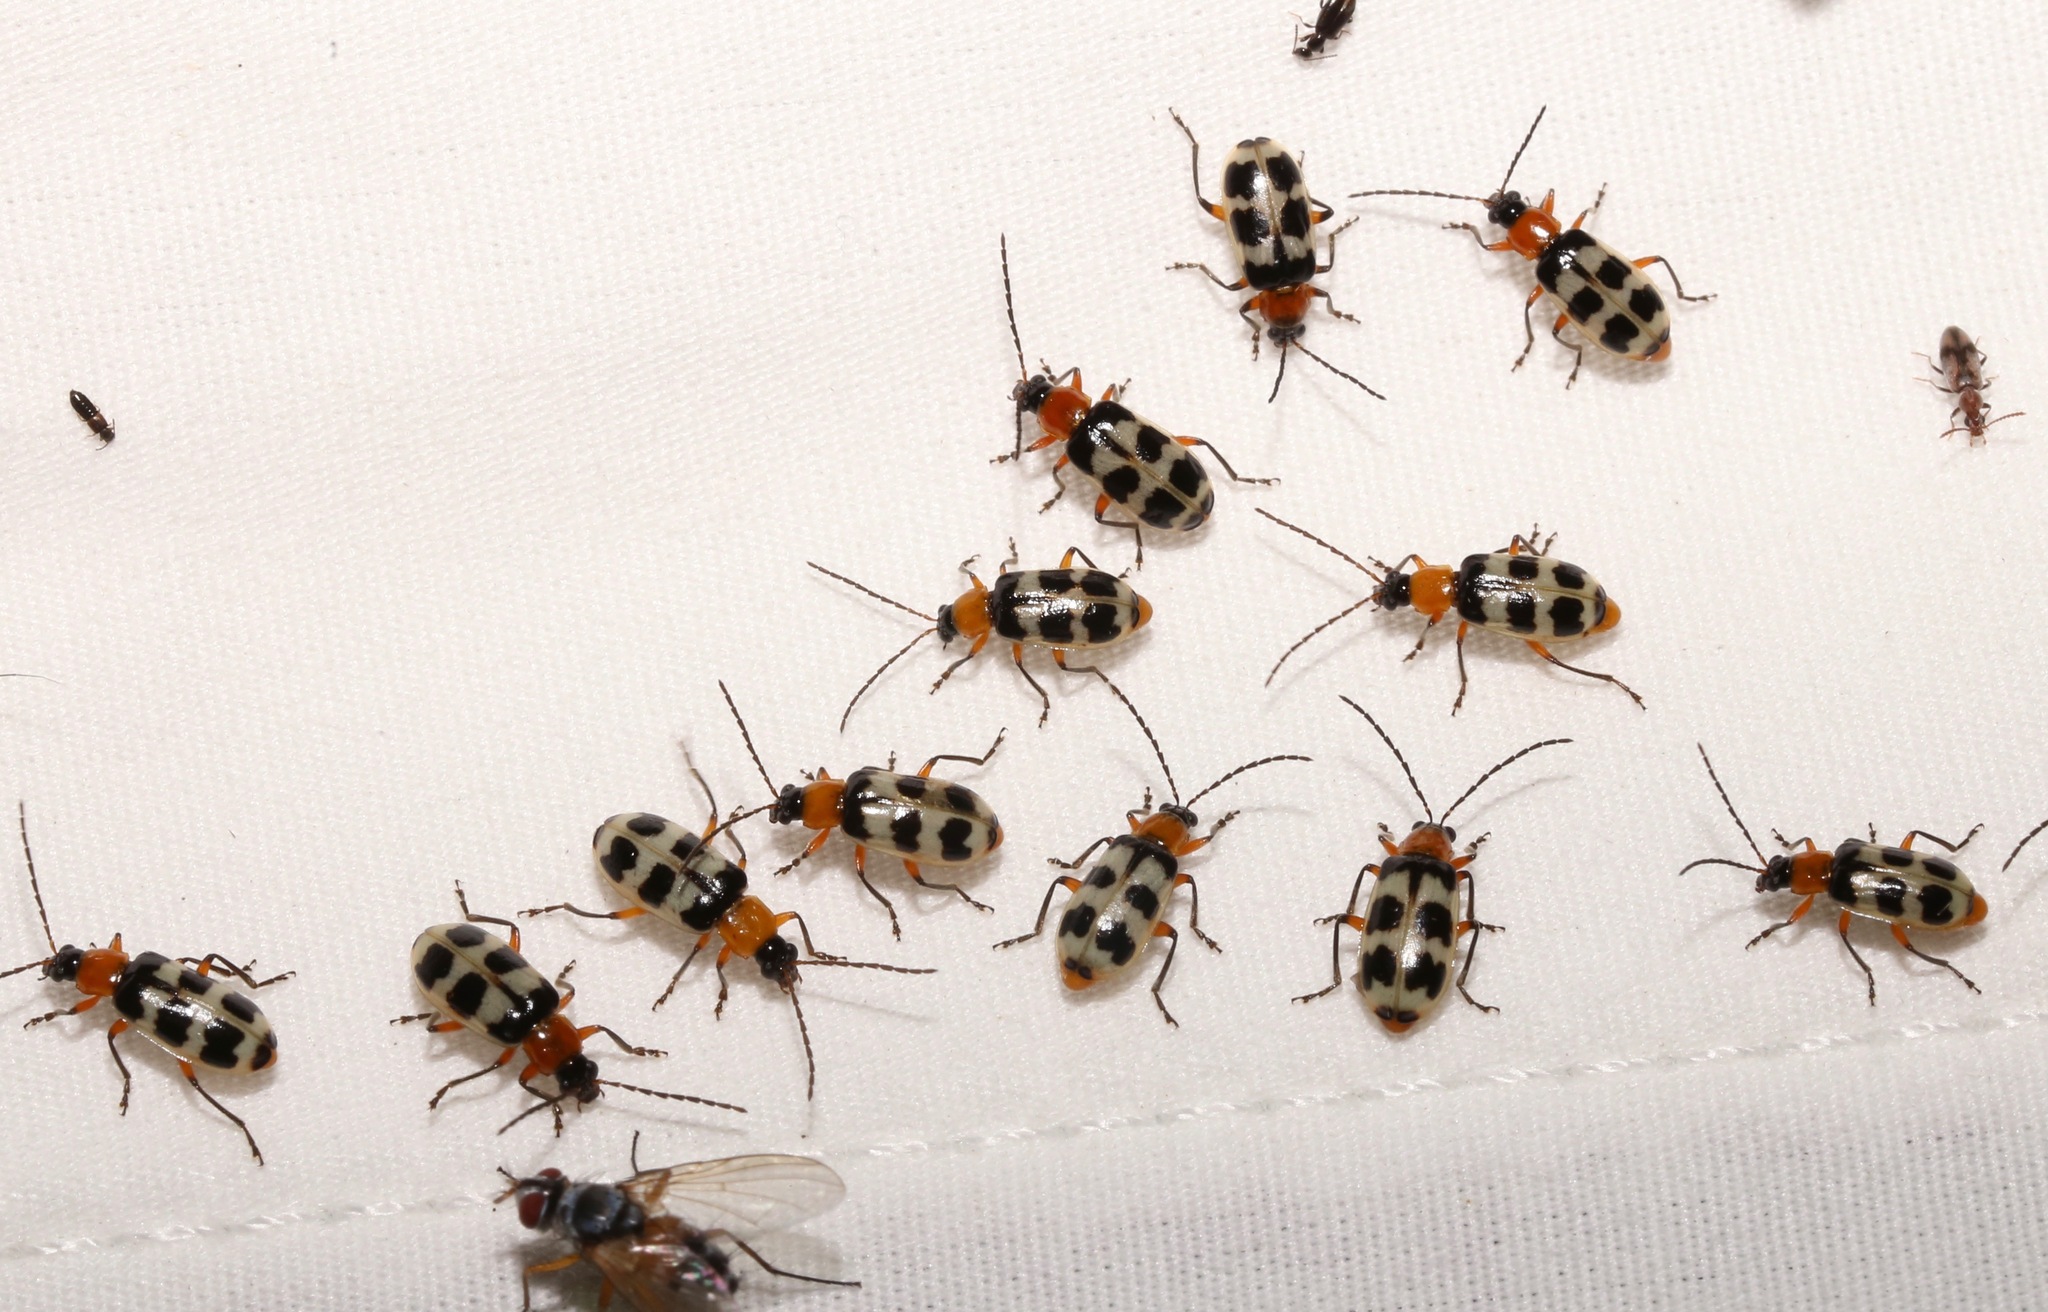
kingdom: Animalia
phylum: Arthropoda
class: Insecta
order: Coleoptera
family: Chrysomelidae
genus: Paranapiacaba
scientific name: Paranapiacaba tricincta
